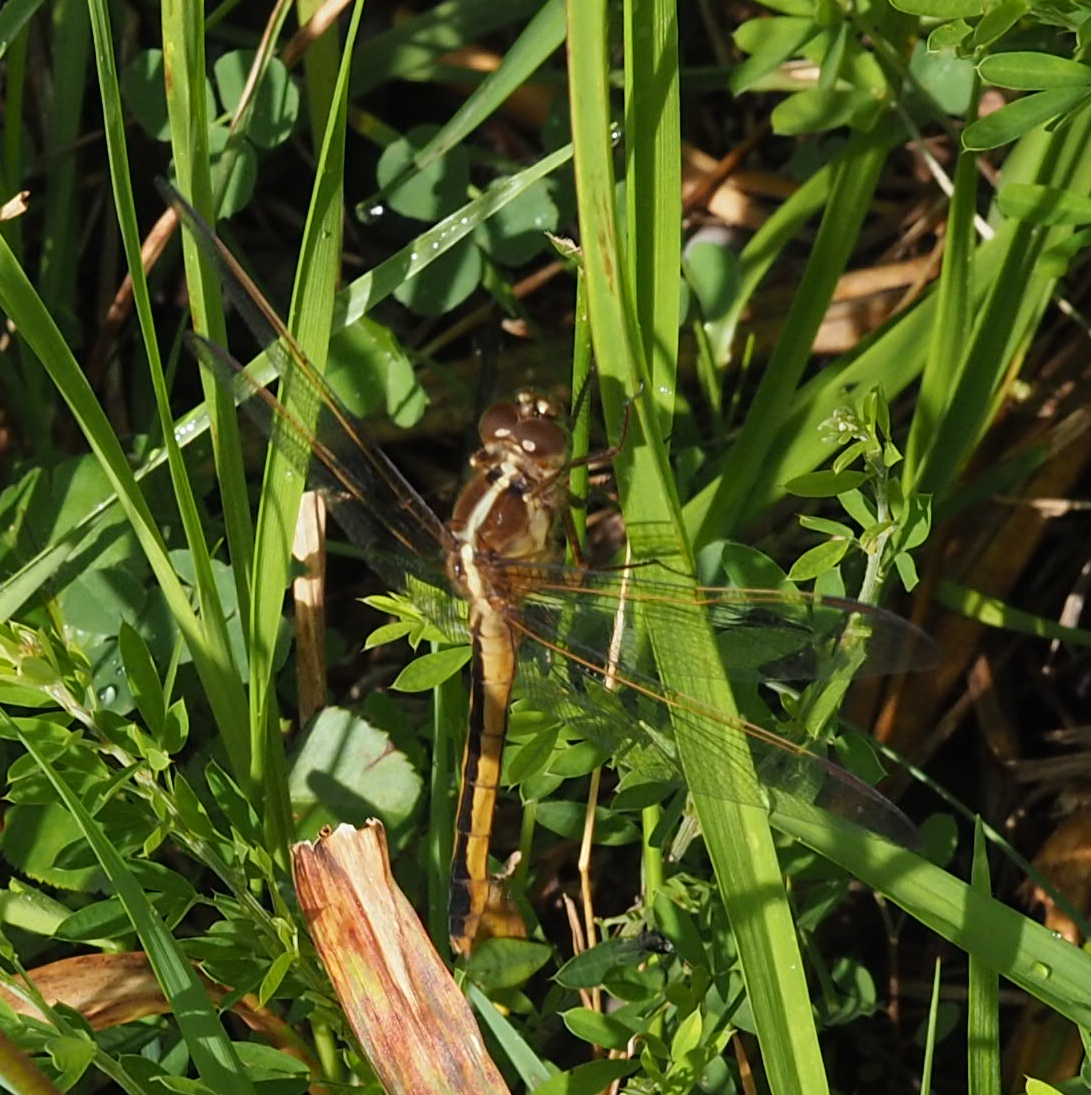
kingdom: Animalia
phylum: Arthropoda
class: Insecta
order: Odonata
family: Libellulidae
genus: Libellula
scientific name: Libellula needhami
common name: Needham's skimmer
